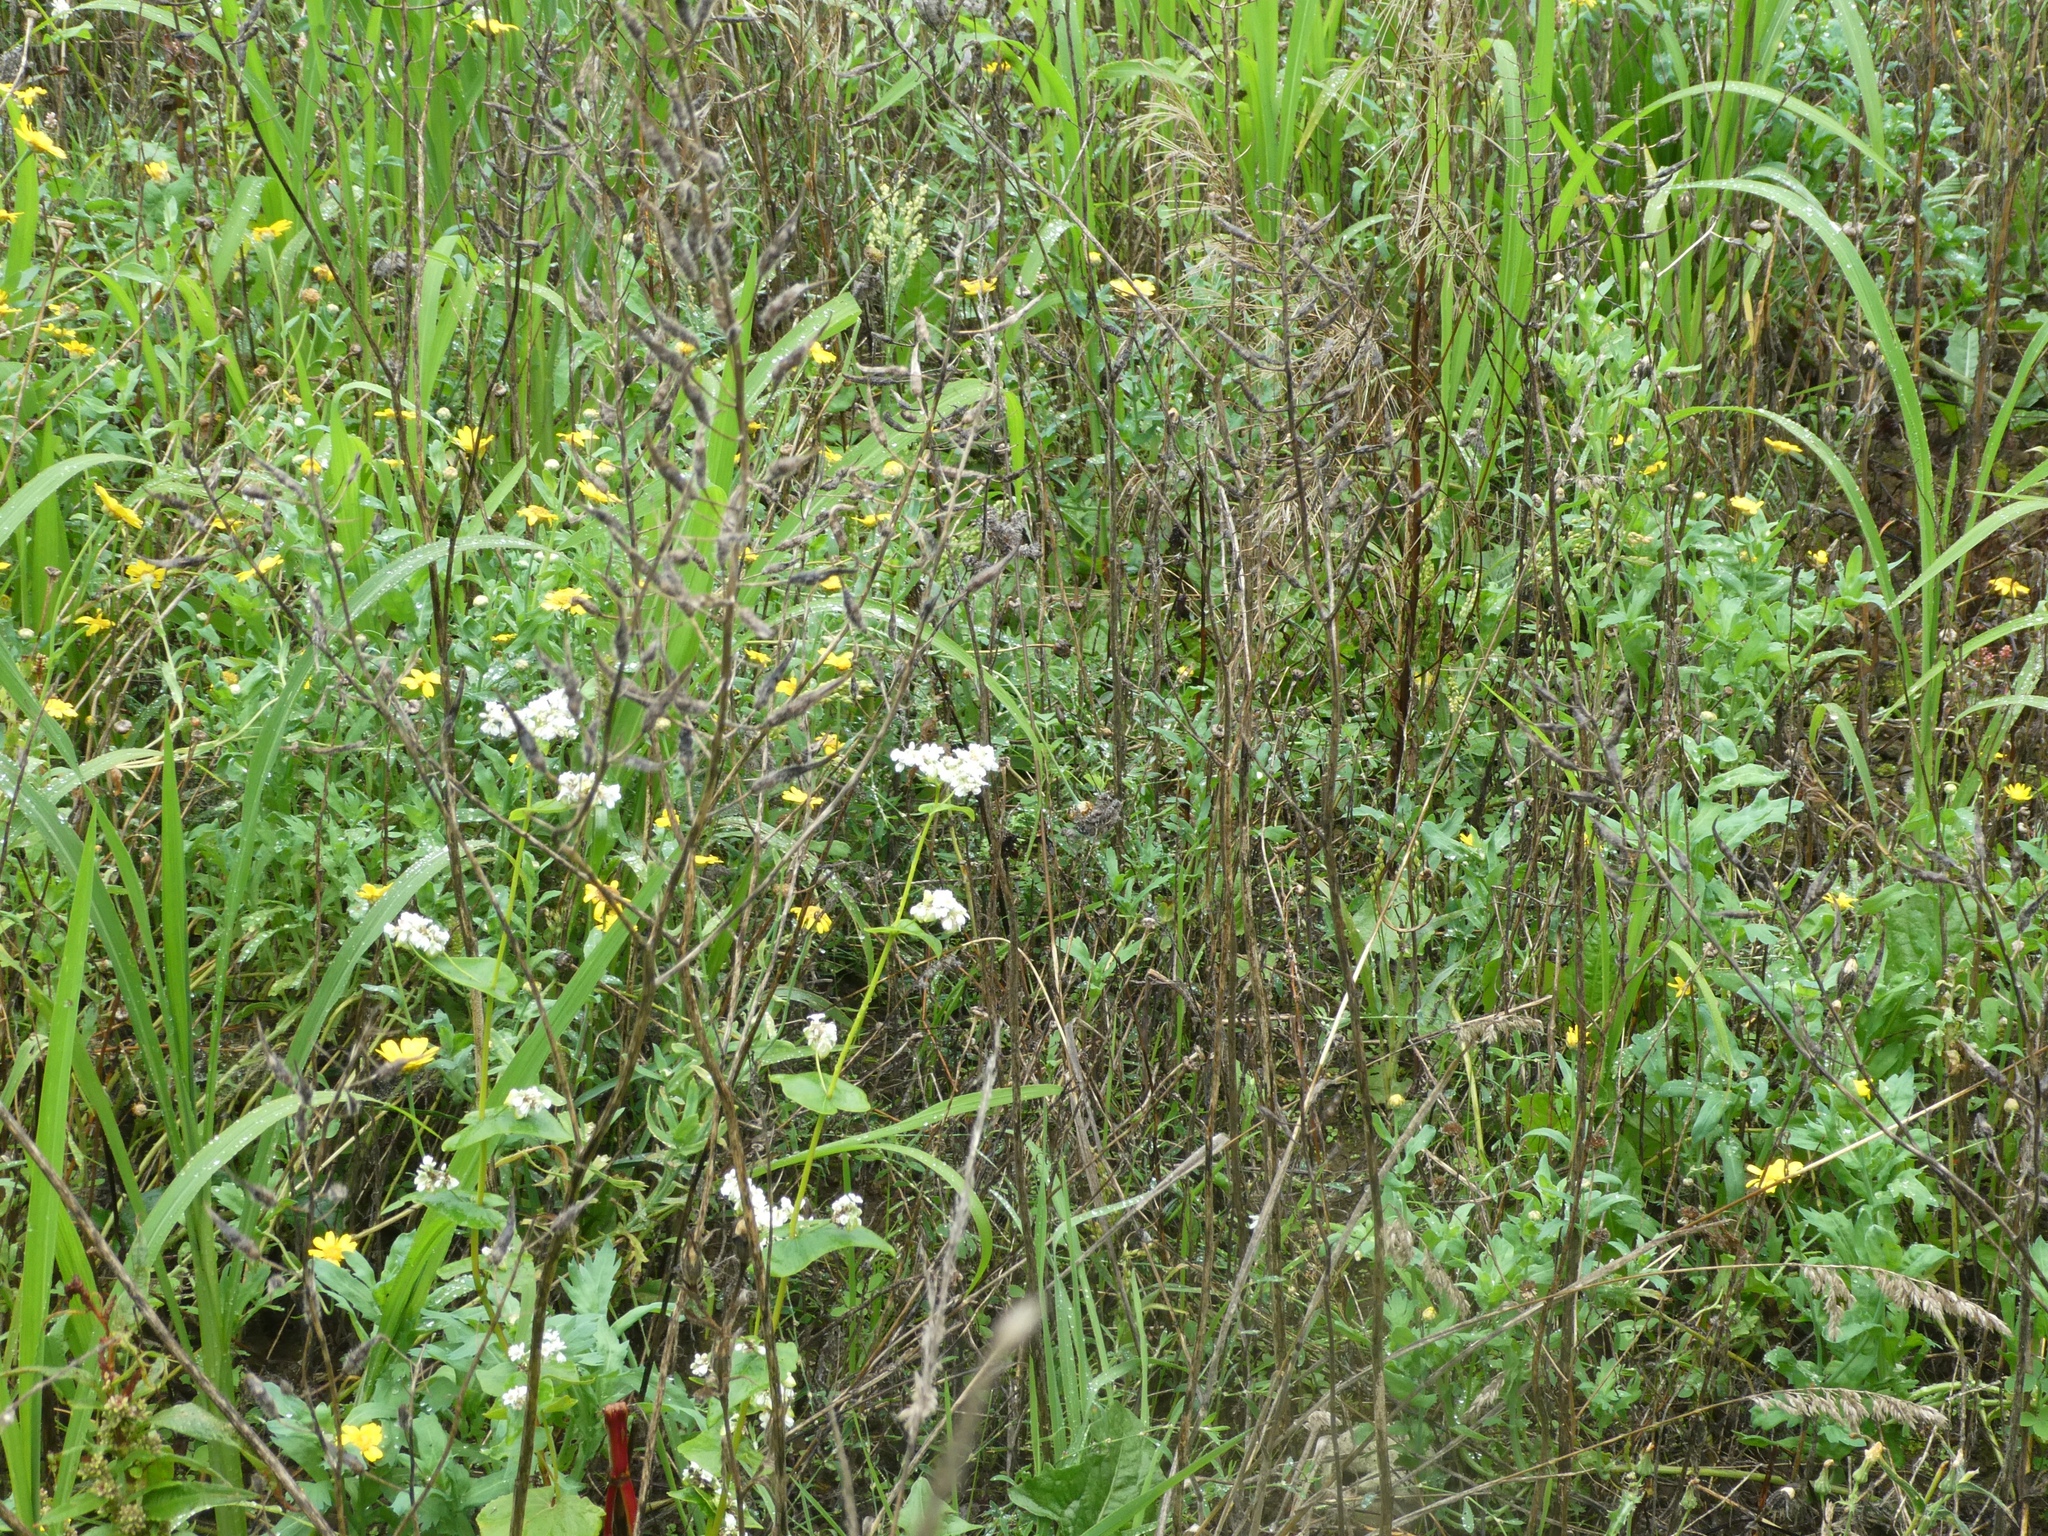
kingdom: Plantae
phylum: Tracheophyta
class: Magnoliopsida
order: Caryophyllales
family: Polygonaceae
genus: Fagopyrum
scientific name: Fagopyrum esculentum
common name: Buckwheat
